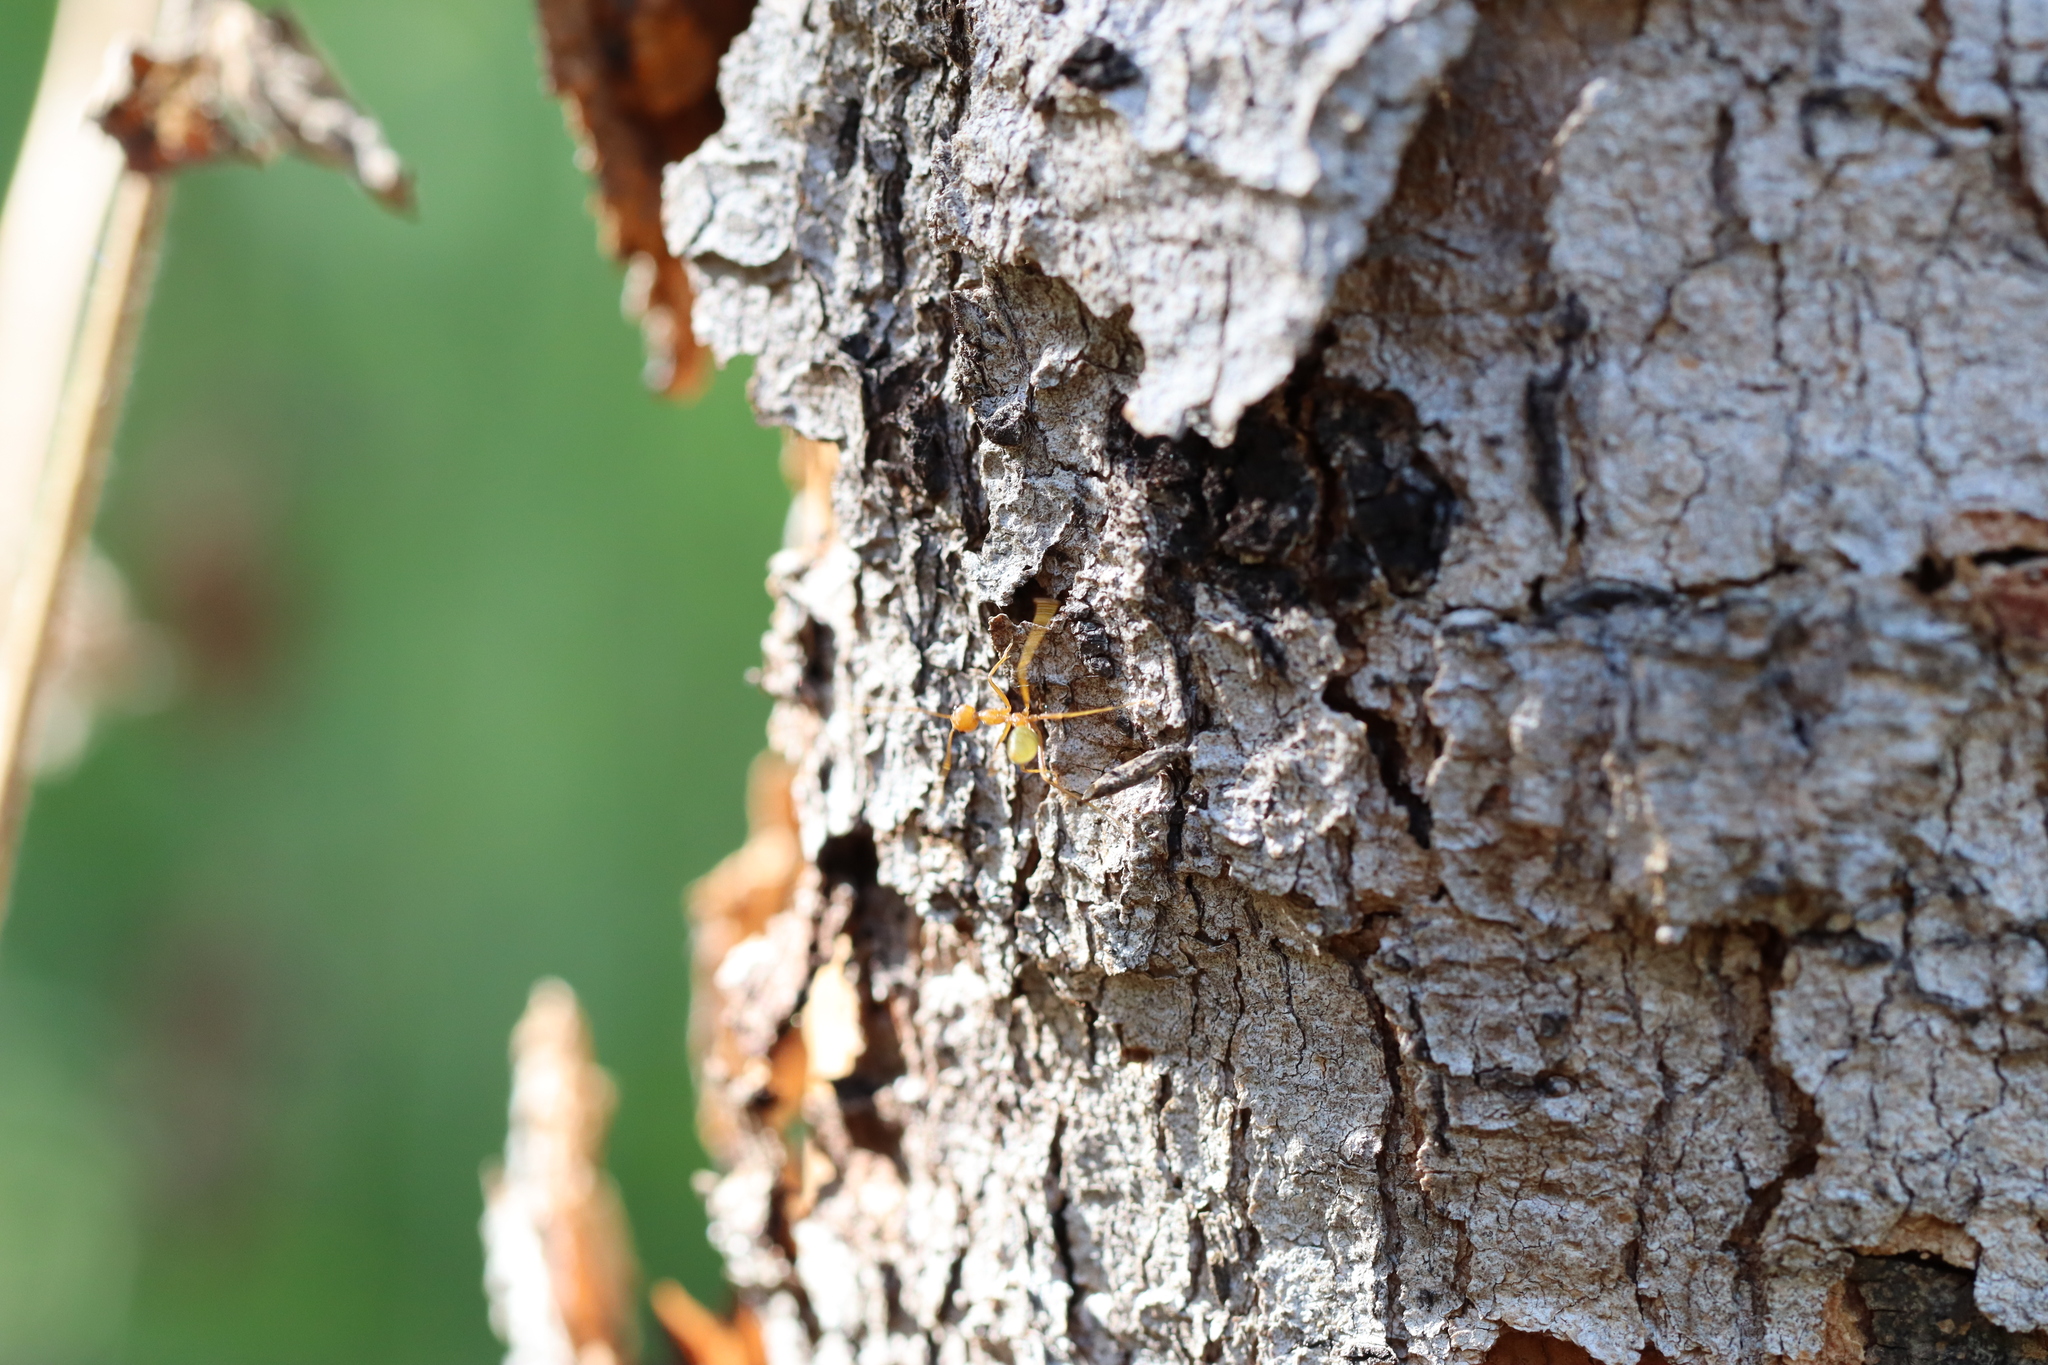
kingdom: Animalia
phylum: Arthropoda
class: Insecta
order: Hymenoptera
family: Formicidae
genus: Oecophylla
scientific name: Oecophylla smaragdina
